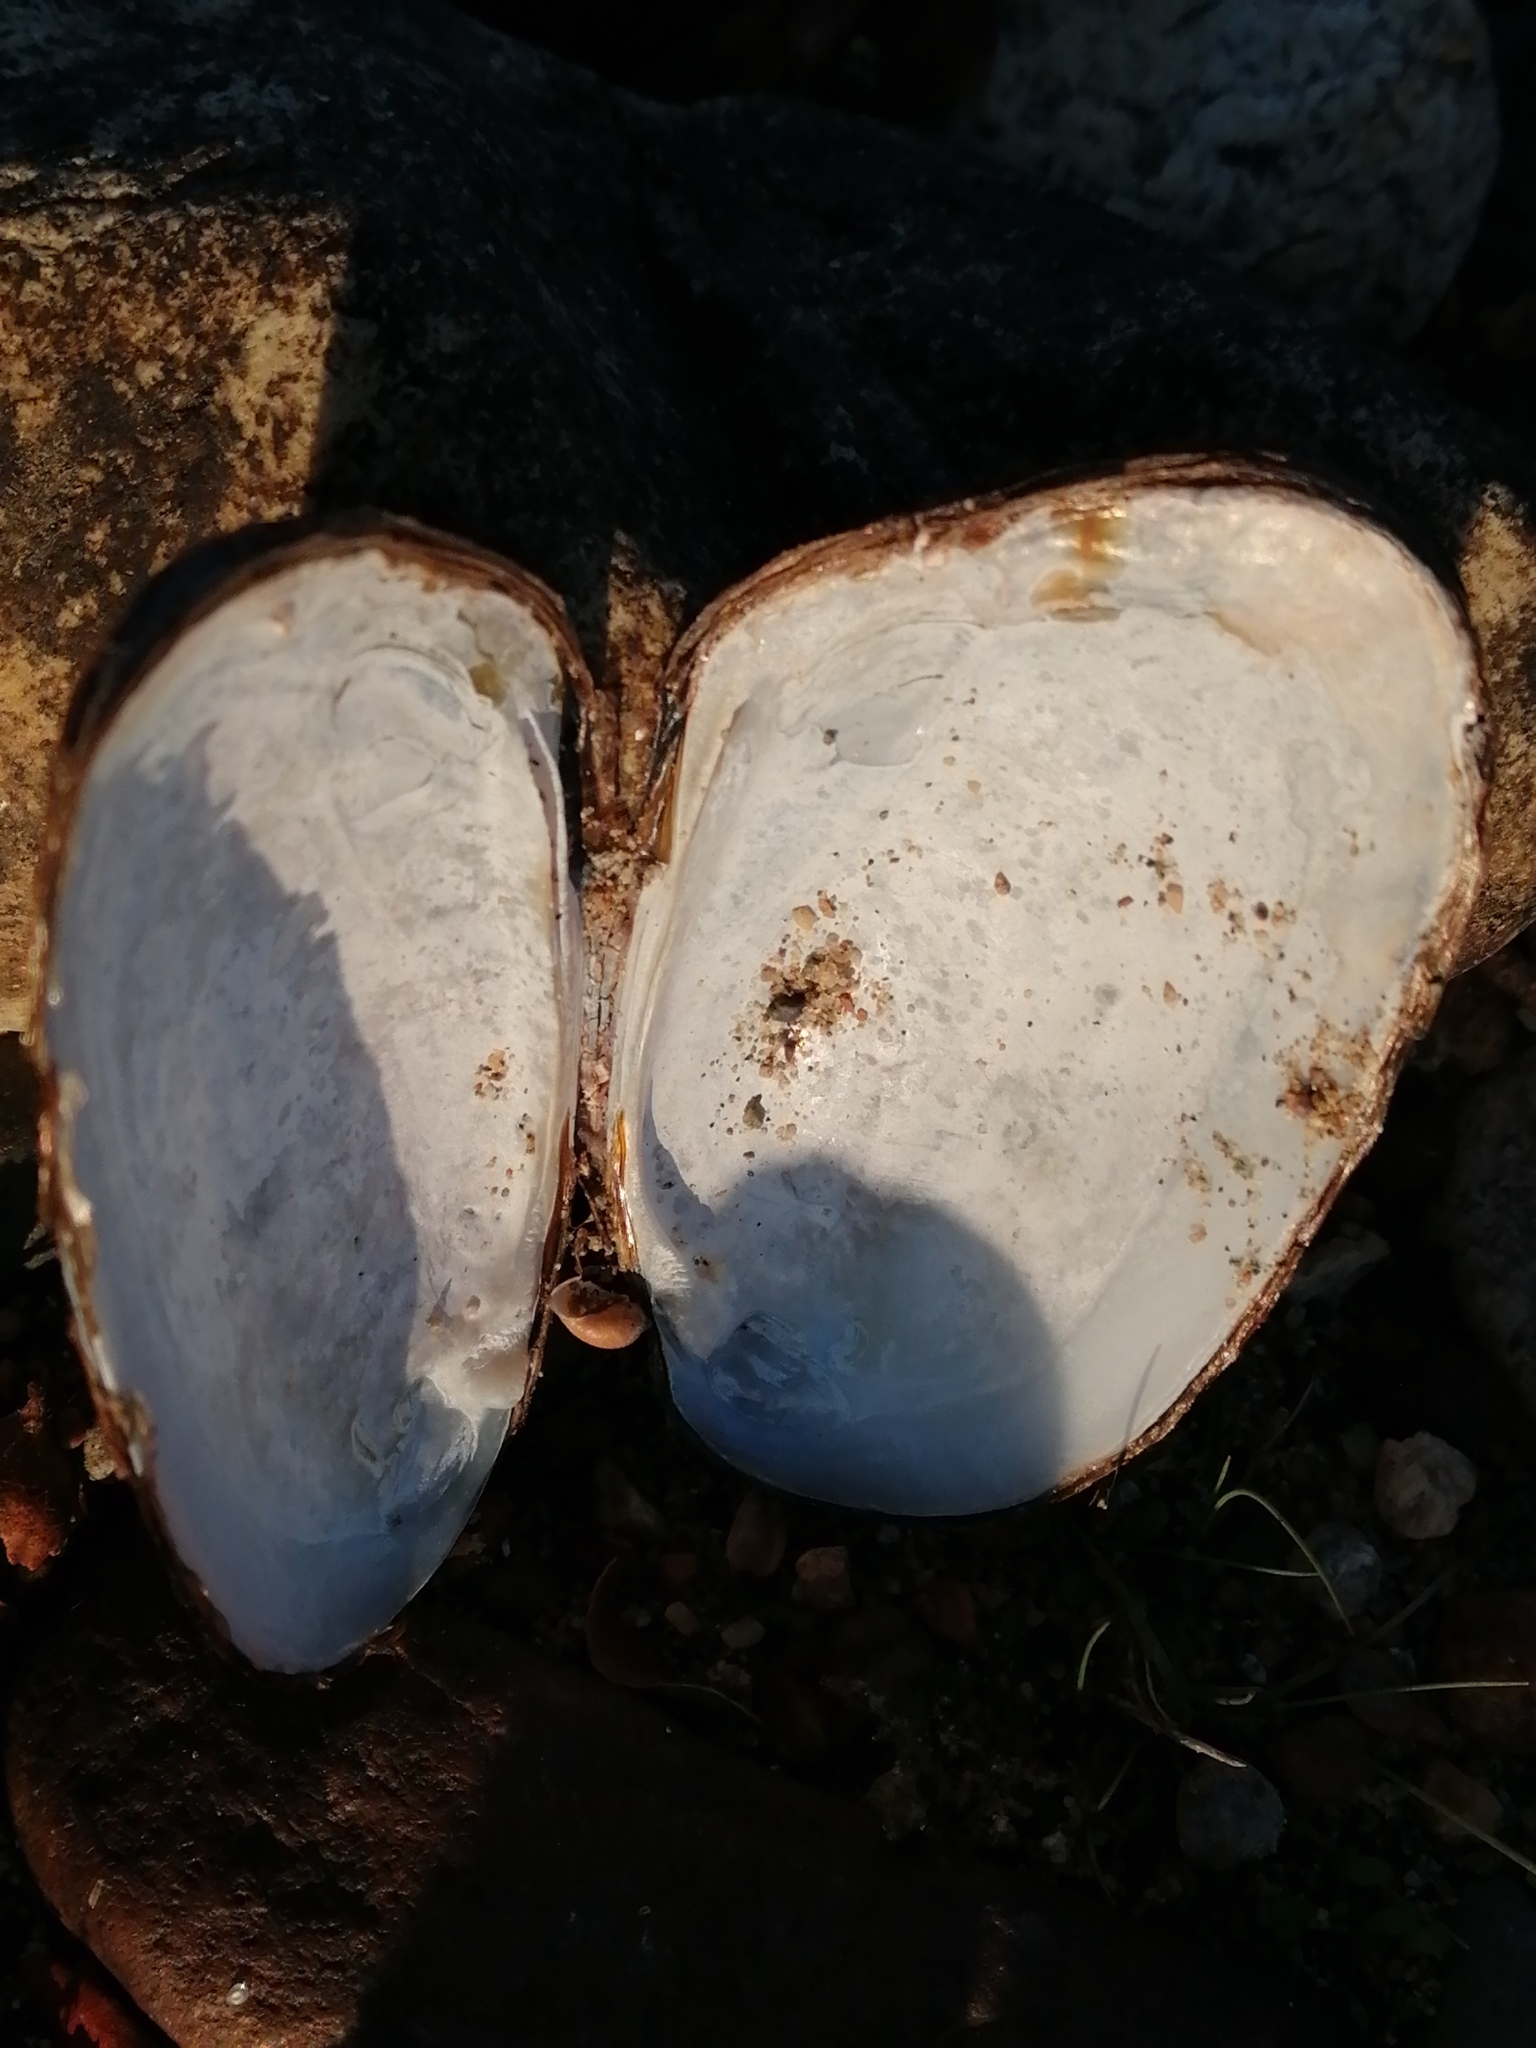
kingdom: Animalia
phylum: Mollusca
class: Bivalvia
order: Unionida
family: Hyriidae
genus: Echyridella
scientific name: Echyridella menziesii
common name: New zealand freshwater mussel
